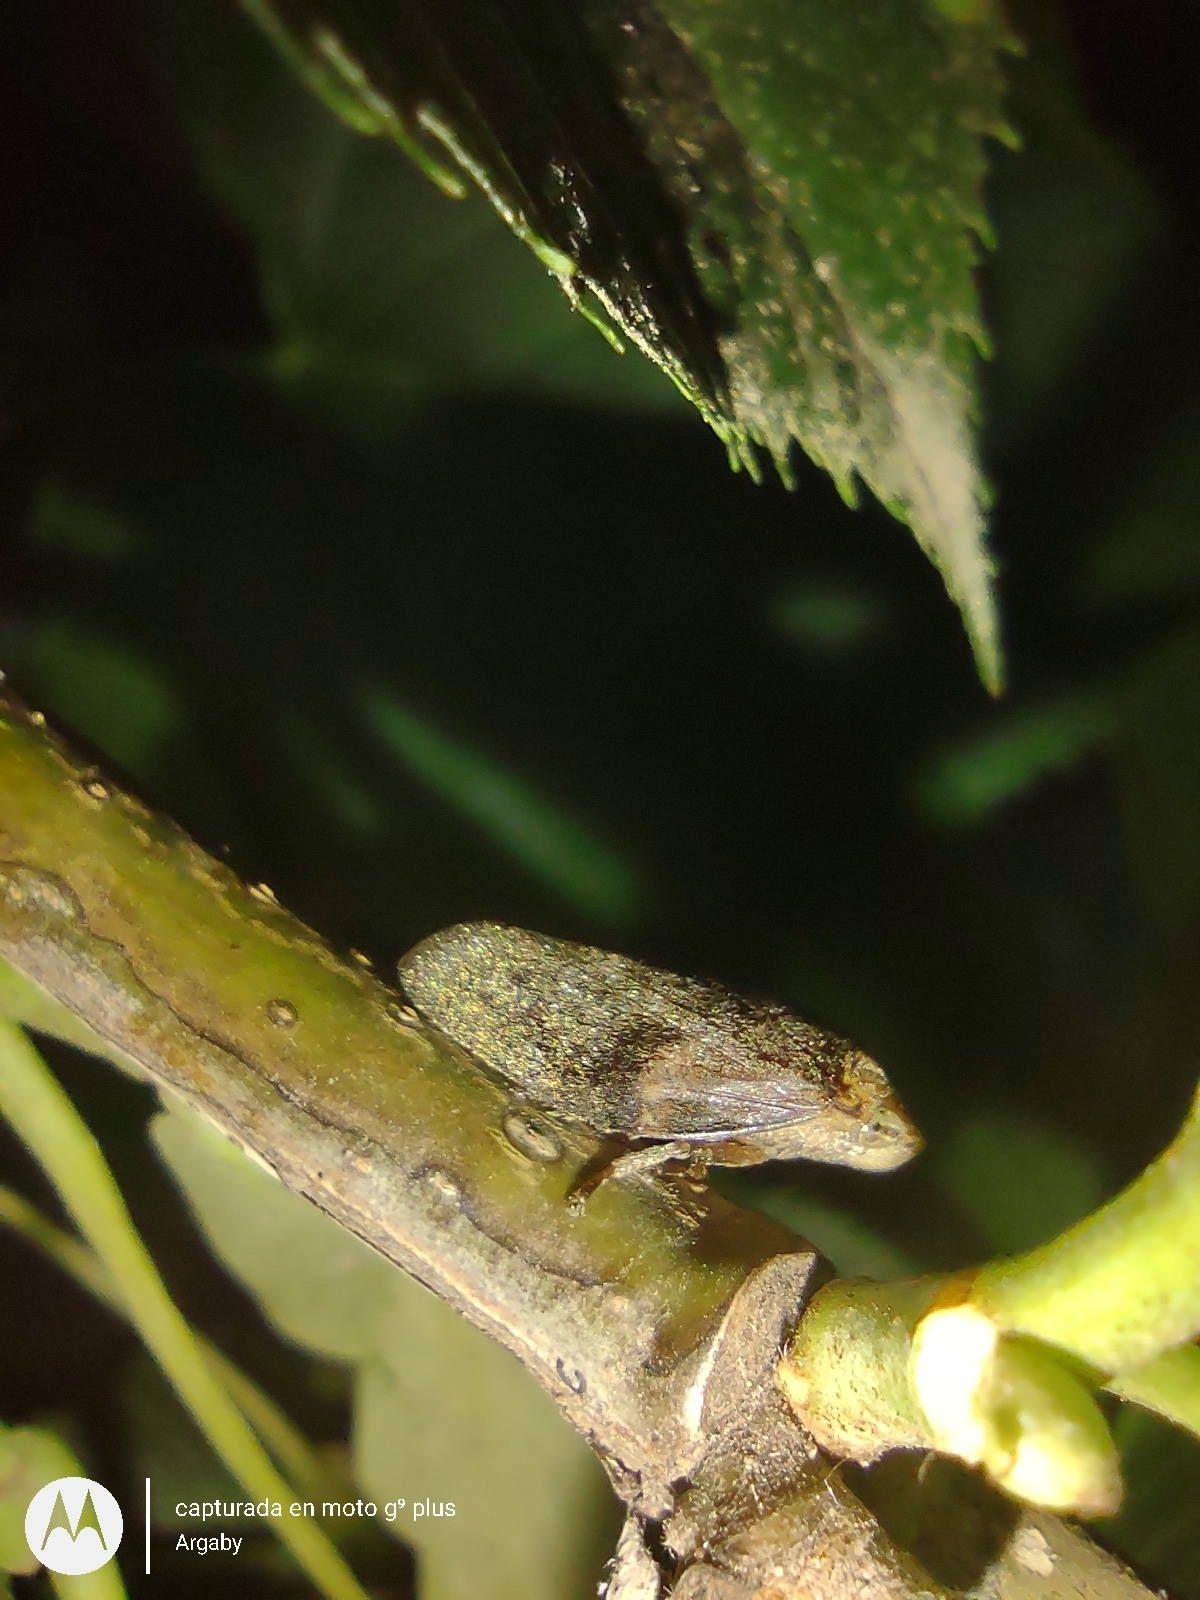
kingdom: Animalia
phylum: Arthropoda
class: Insecta
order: Hemiptera
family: Aphrophoridae
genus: Cephisus
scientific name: Cephisus siccifolius
